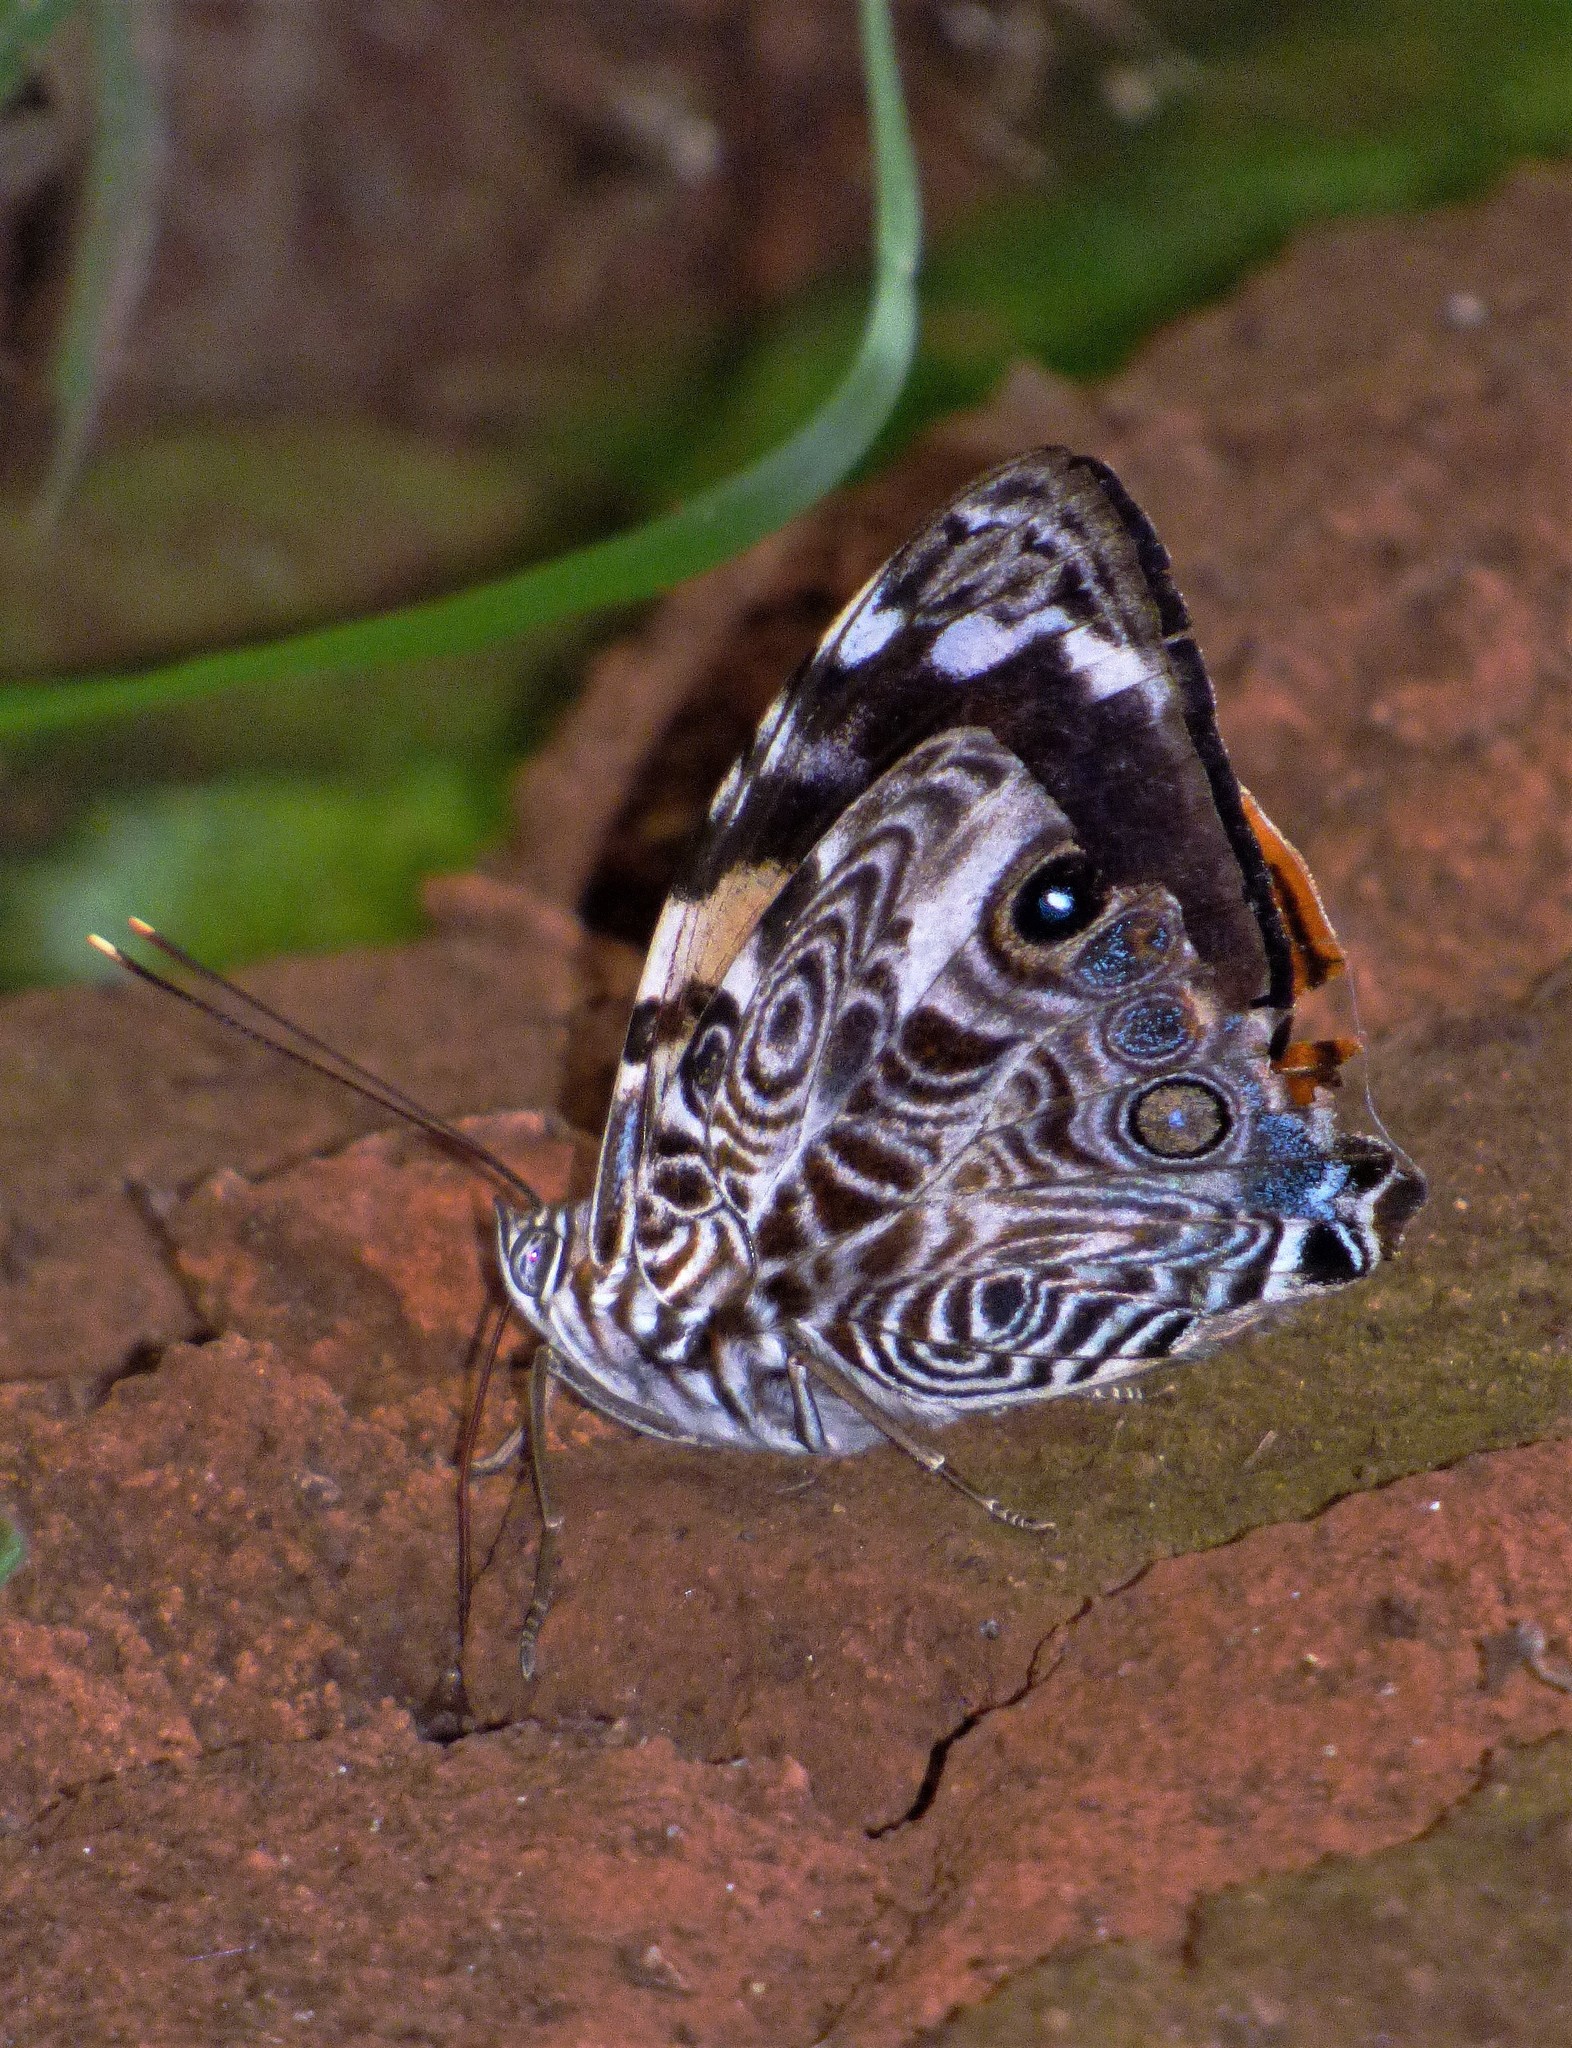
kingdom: Animalia
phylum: Arthropoda
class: Insecta
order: Lepidoptera
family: Nymphalidae
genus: Smyrna
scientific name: Smyrna blomfildia
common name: Blomfild's beauty
